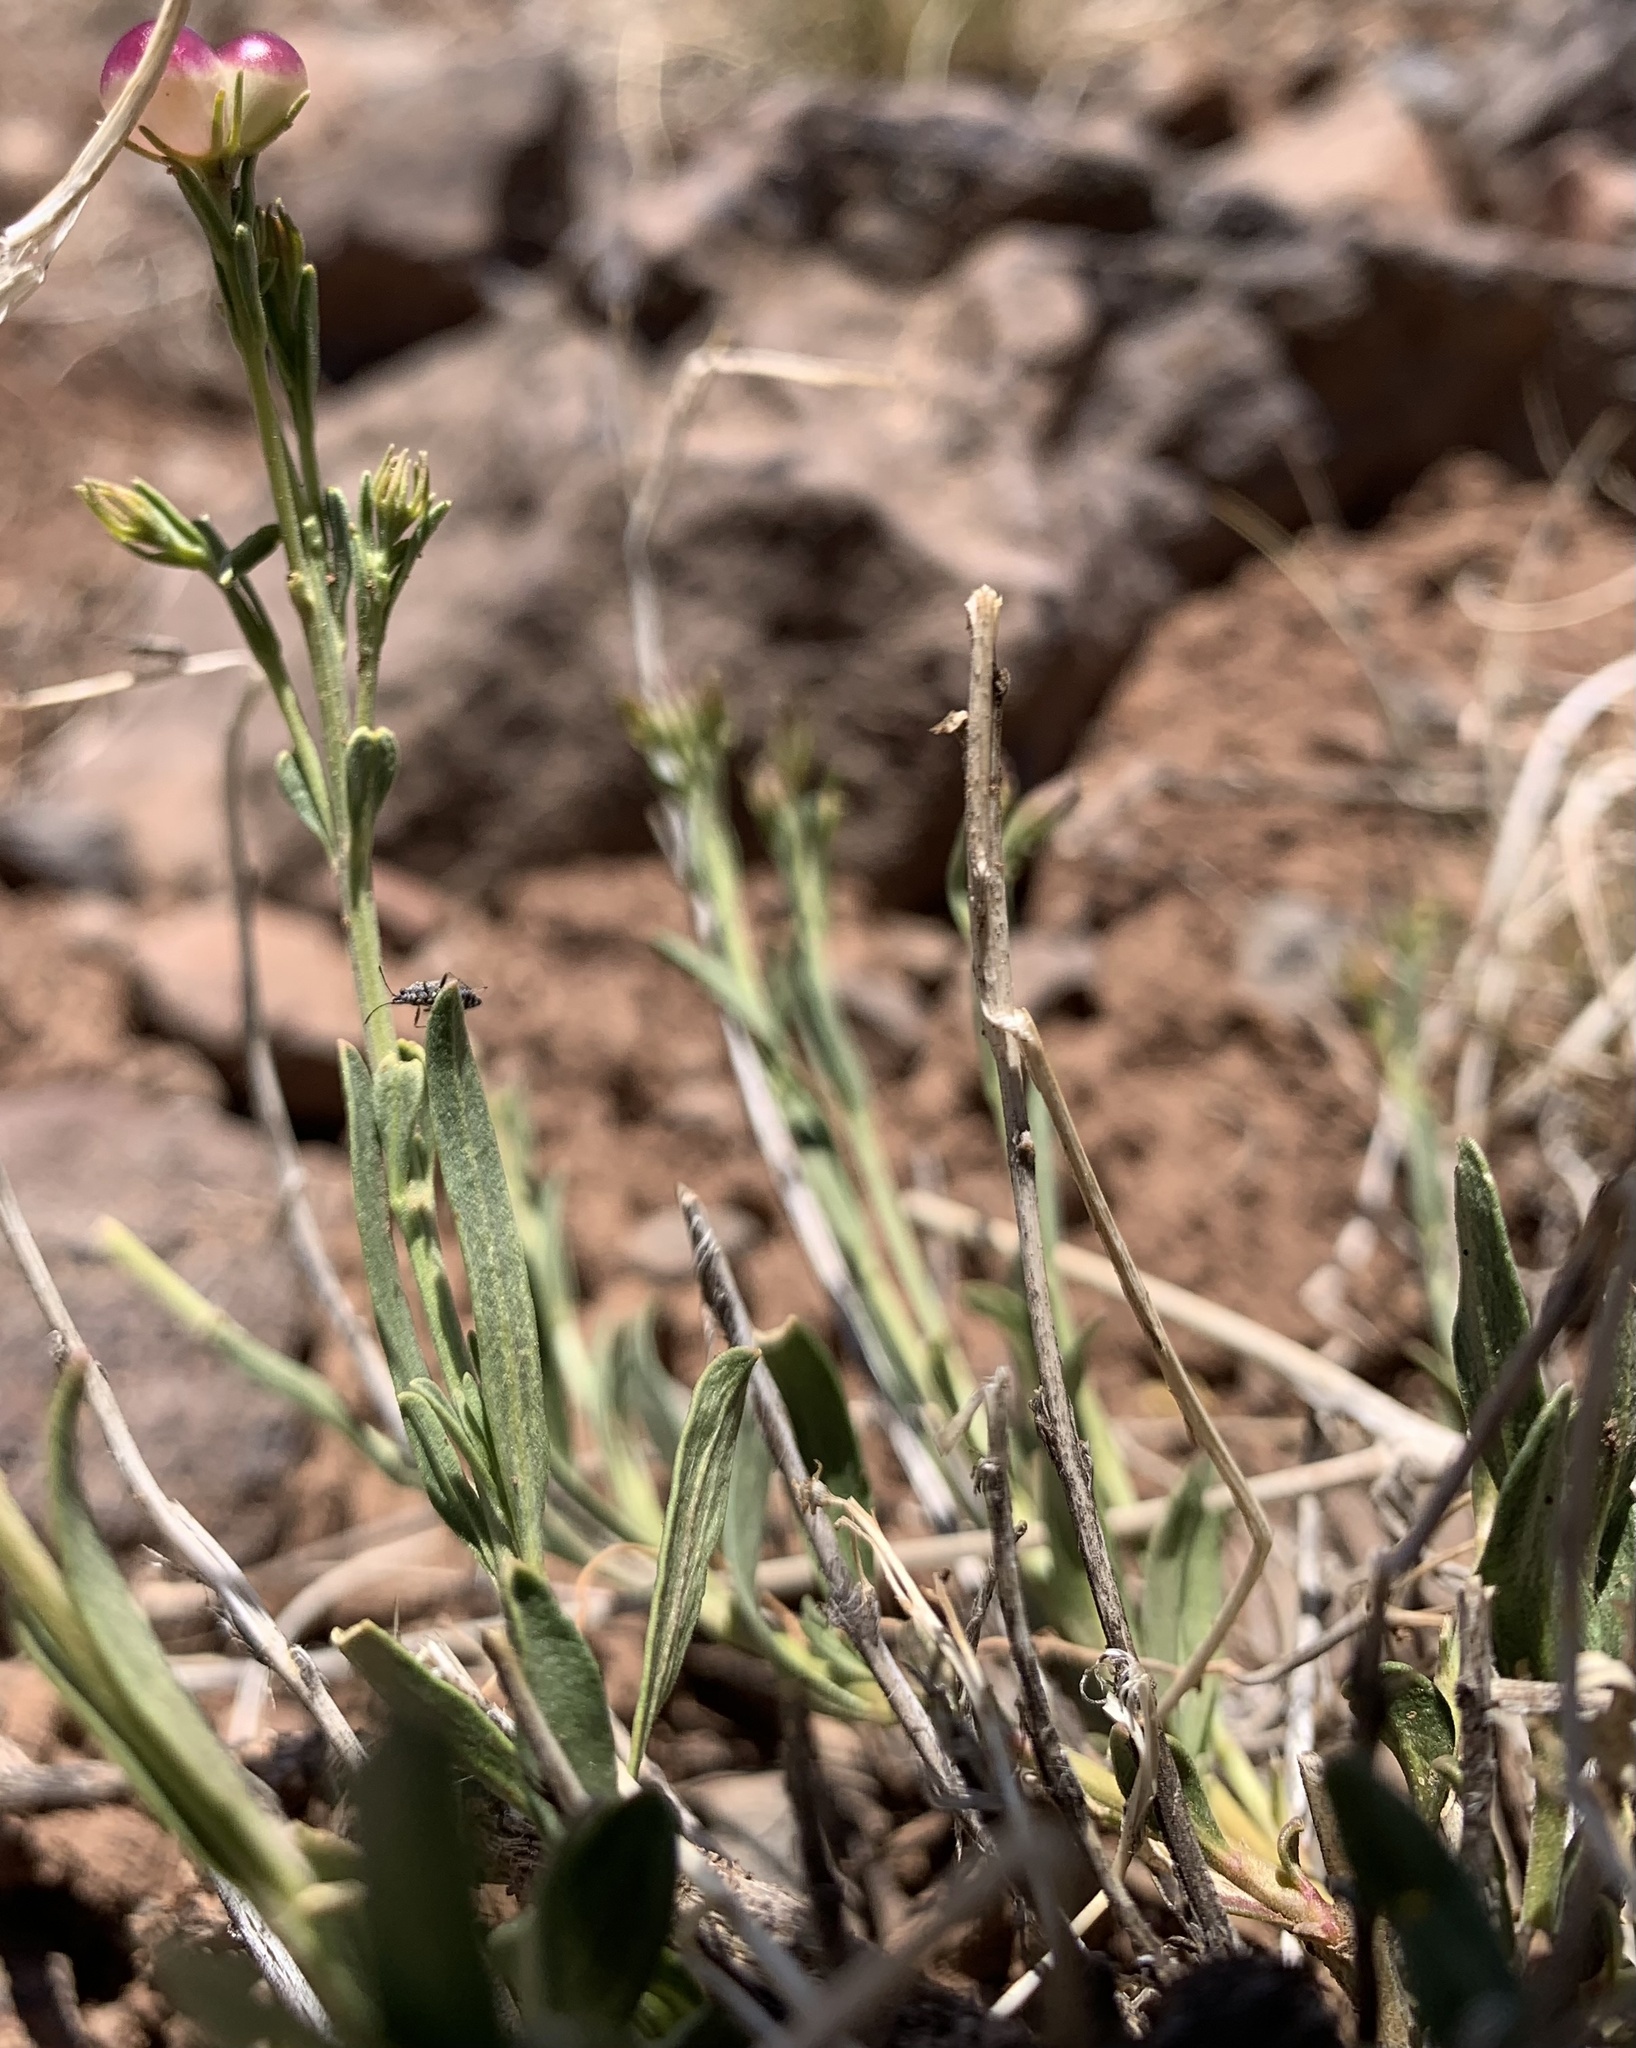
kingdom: Plantae
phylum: Tracheophyta
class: Magnoliopsida
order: Lamiales
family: Oleaceae
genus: Menodora
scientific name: Menodora scabra
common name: Rough menodora
